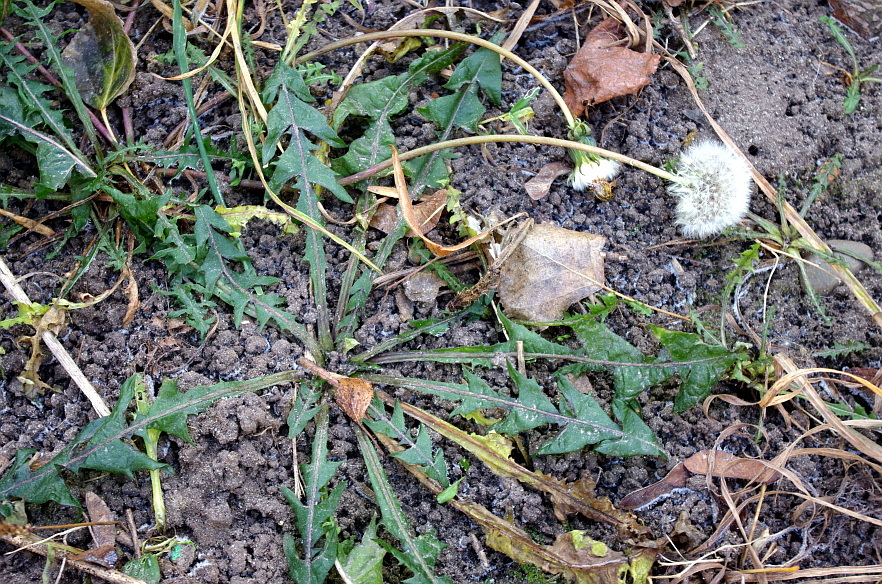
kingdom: Plantae
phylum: Tracheophyta
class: Magnoliopsida
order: Asterales
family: Asteraceae
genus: Taraxacum
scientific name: Taraxacum officinale
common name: Common dandelion
